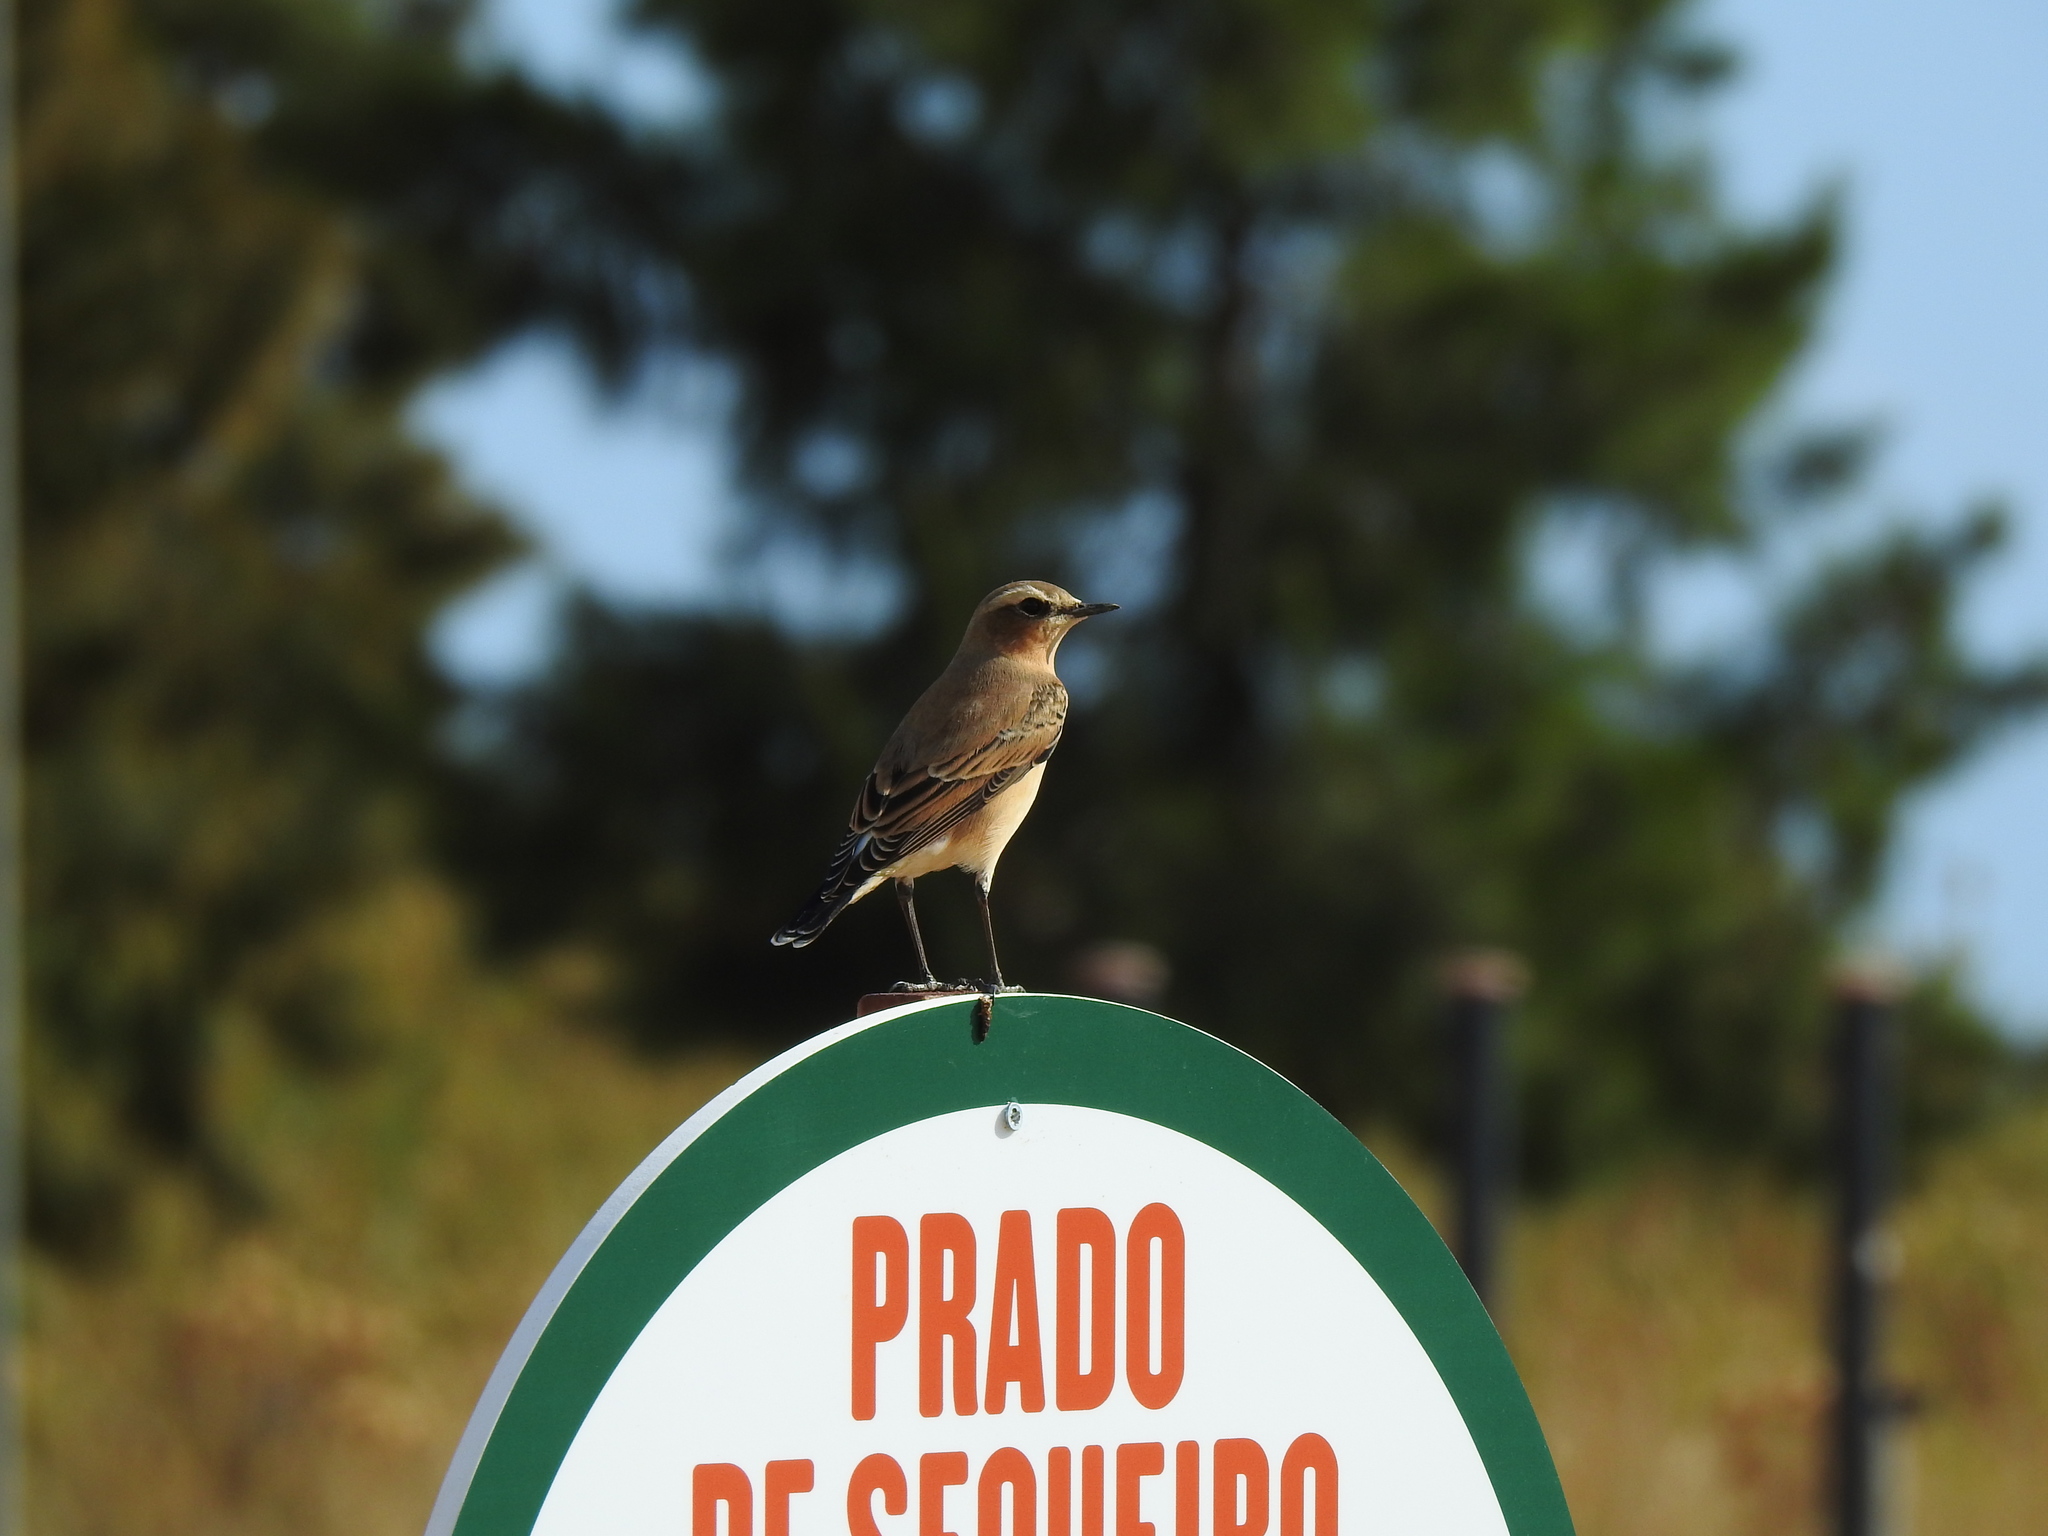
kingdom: Animalia
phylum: Chordata
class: Aves
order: Passeriformes
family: Muscicapidae
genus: Oenanthe
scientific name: Oenanthe oenanthe
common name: Northern wheatear
